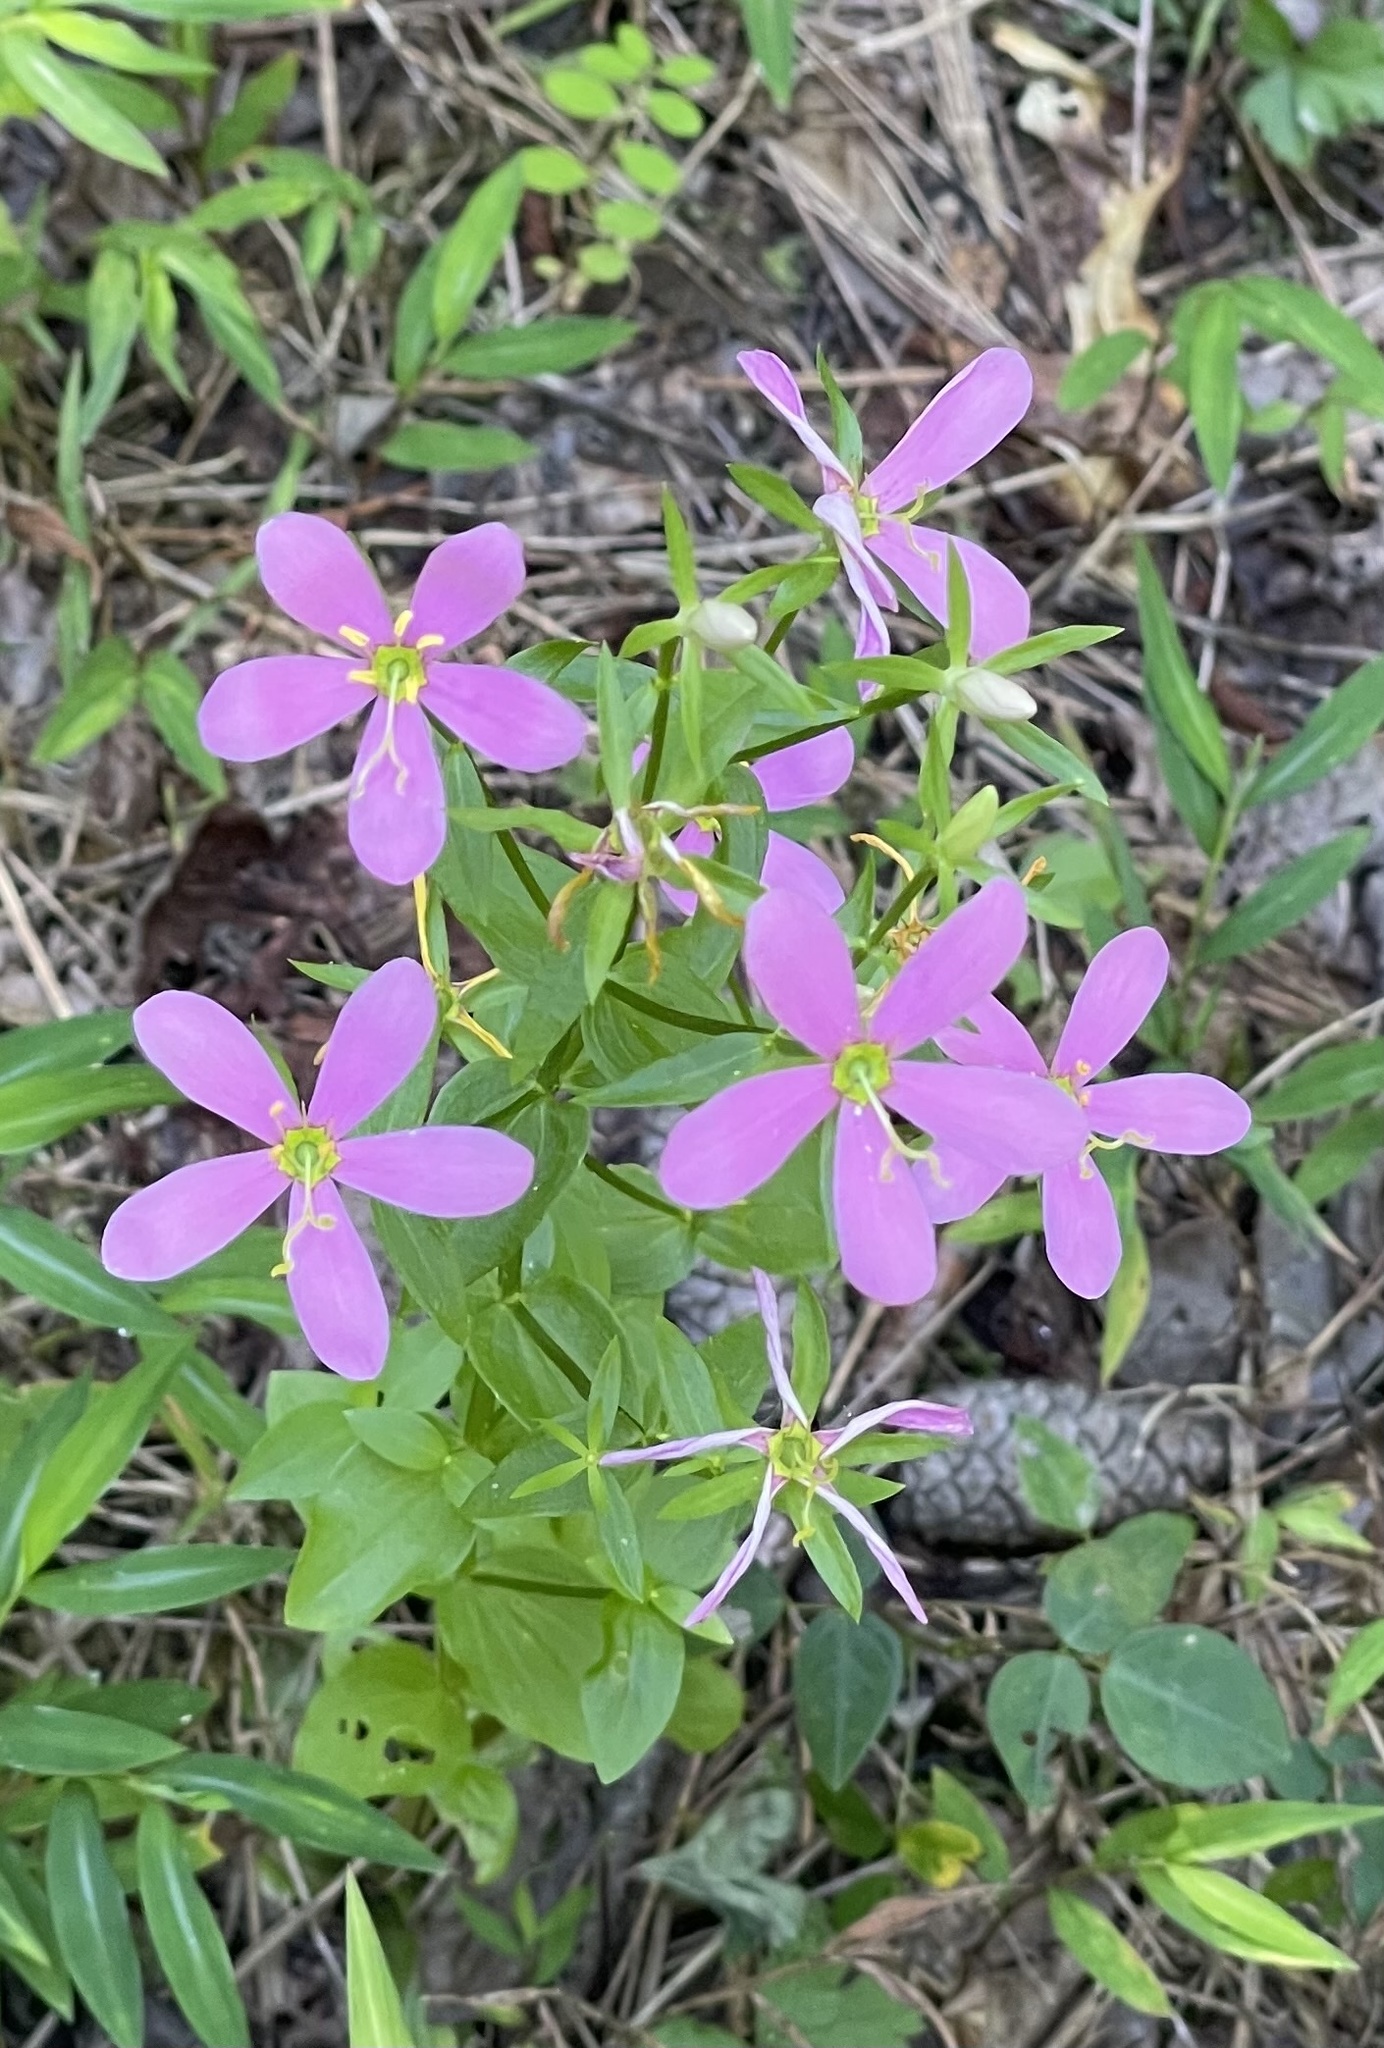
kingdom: Plantae
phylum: Tracheophyta
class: Magnoliopsida
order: Gentianales
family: Gentianaceae
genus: Sabatia
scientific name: Sabatia angularis
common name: Rose-pink
